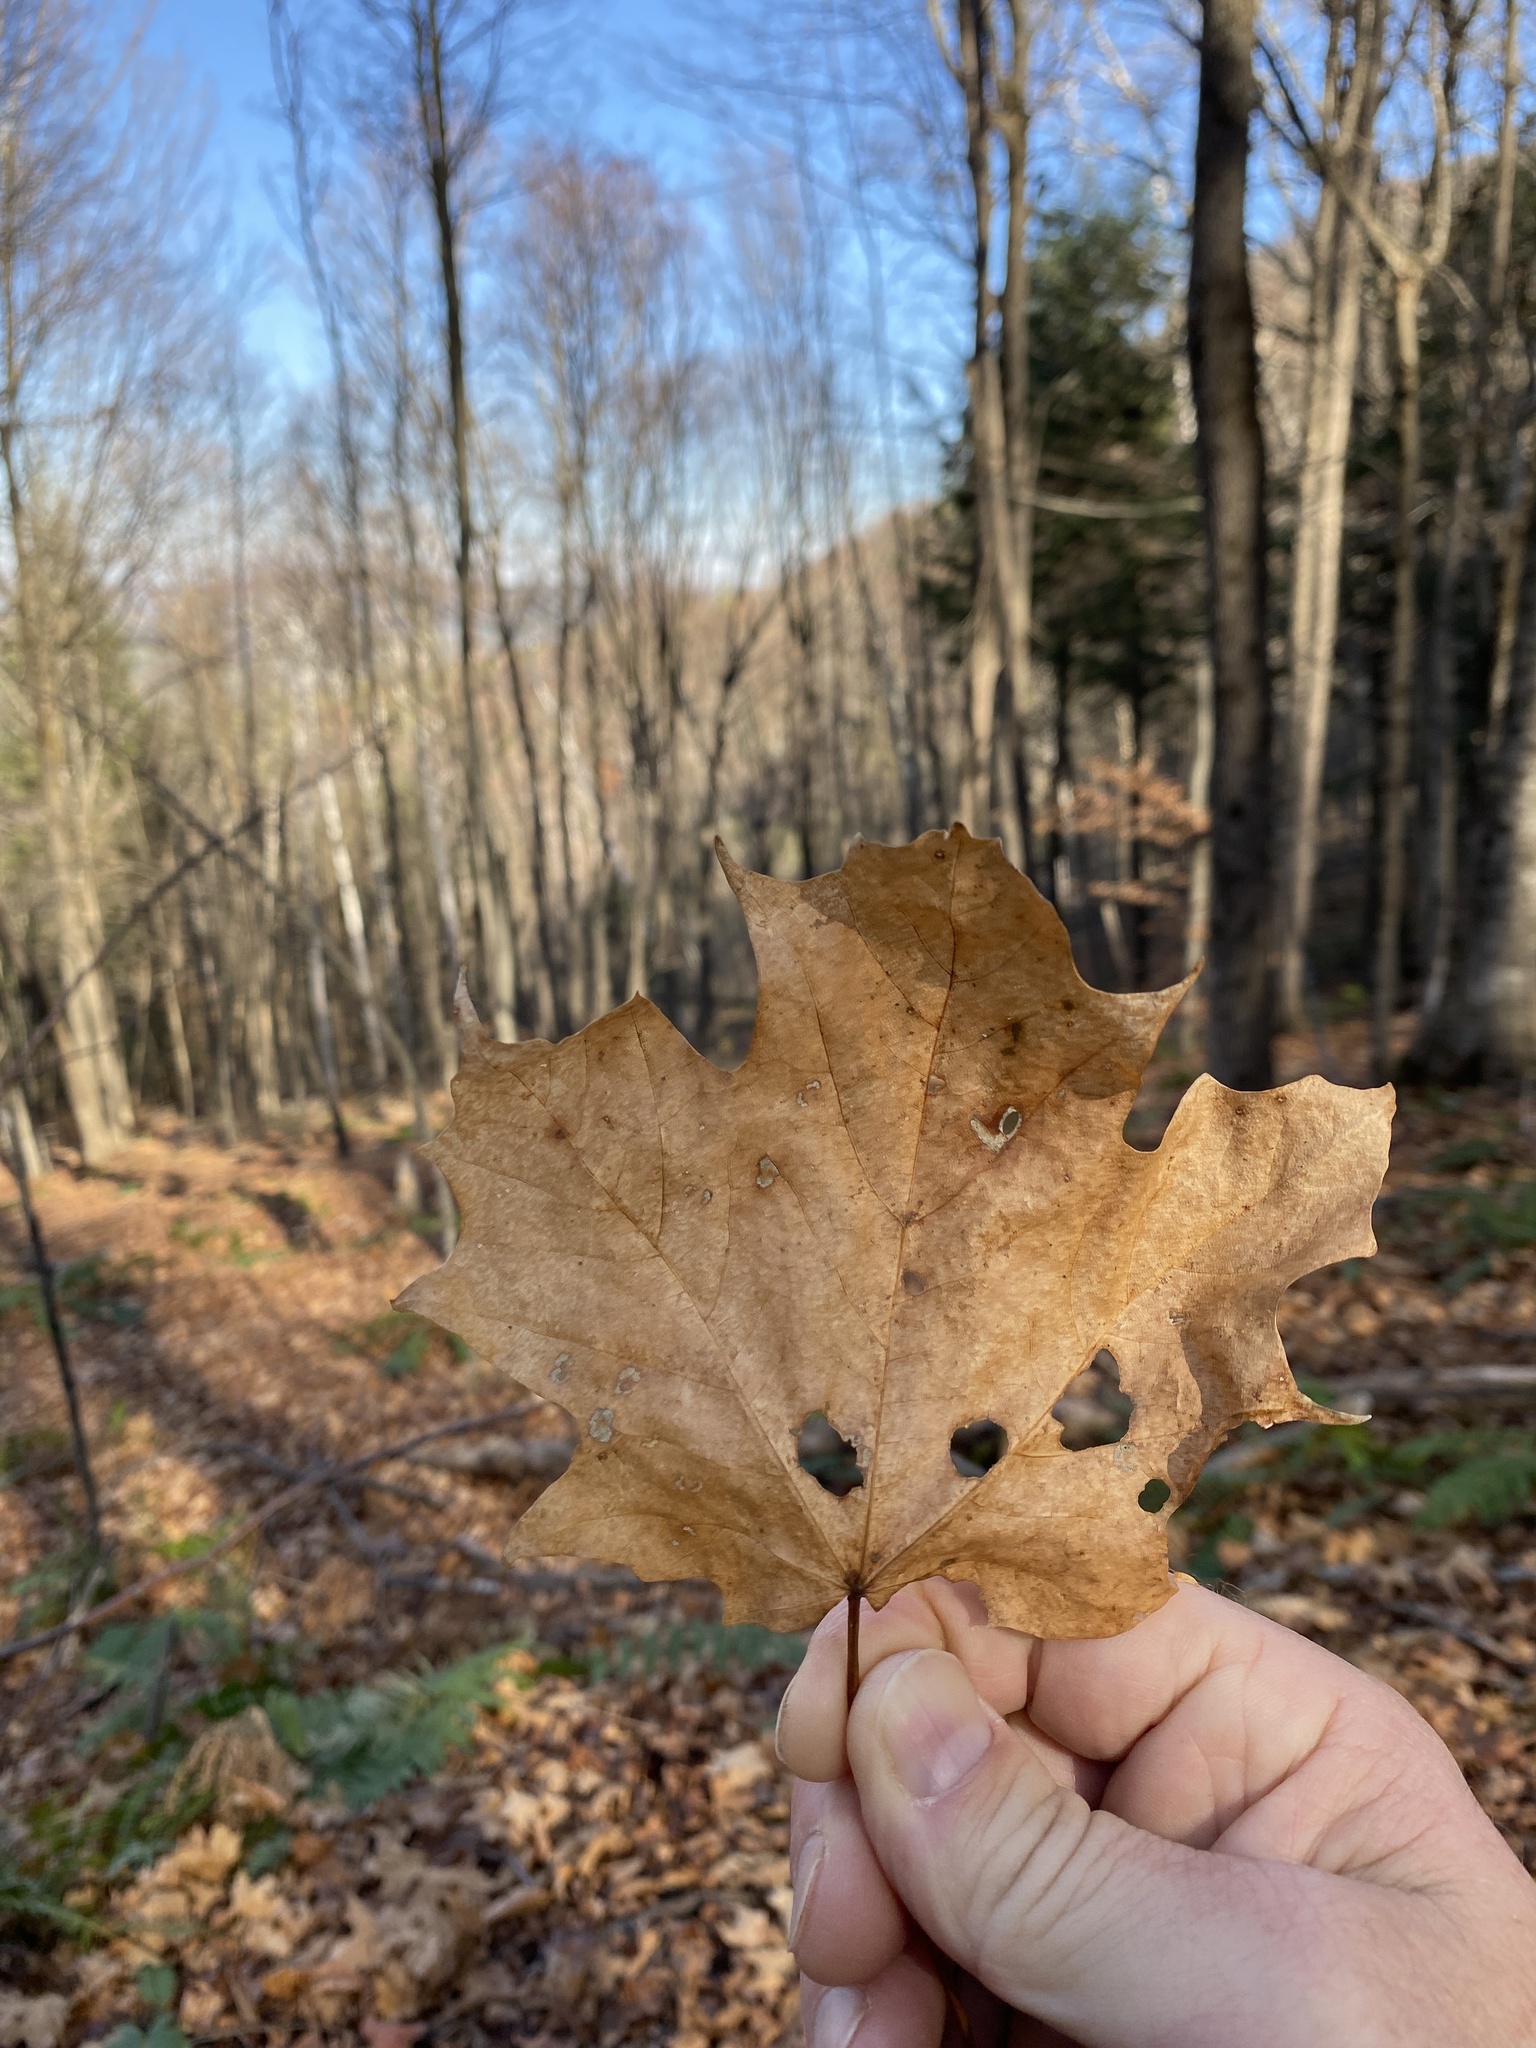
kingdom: Plantae
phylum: Tracheophyta
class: Magnoliopsida
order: Sapindales
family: Sapindaceae
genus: Acer
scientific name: Acer saccharum
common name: Sugar maple
